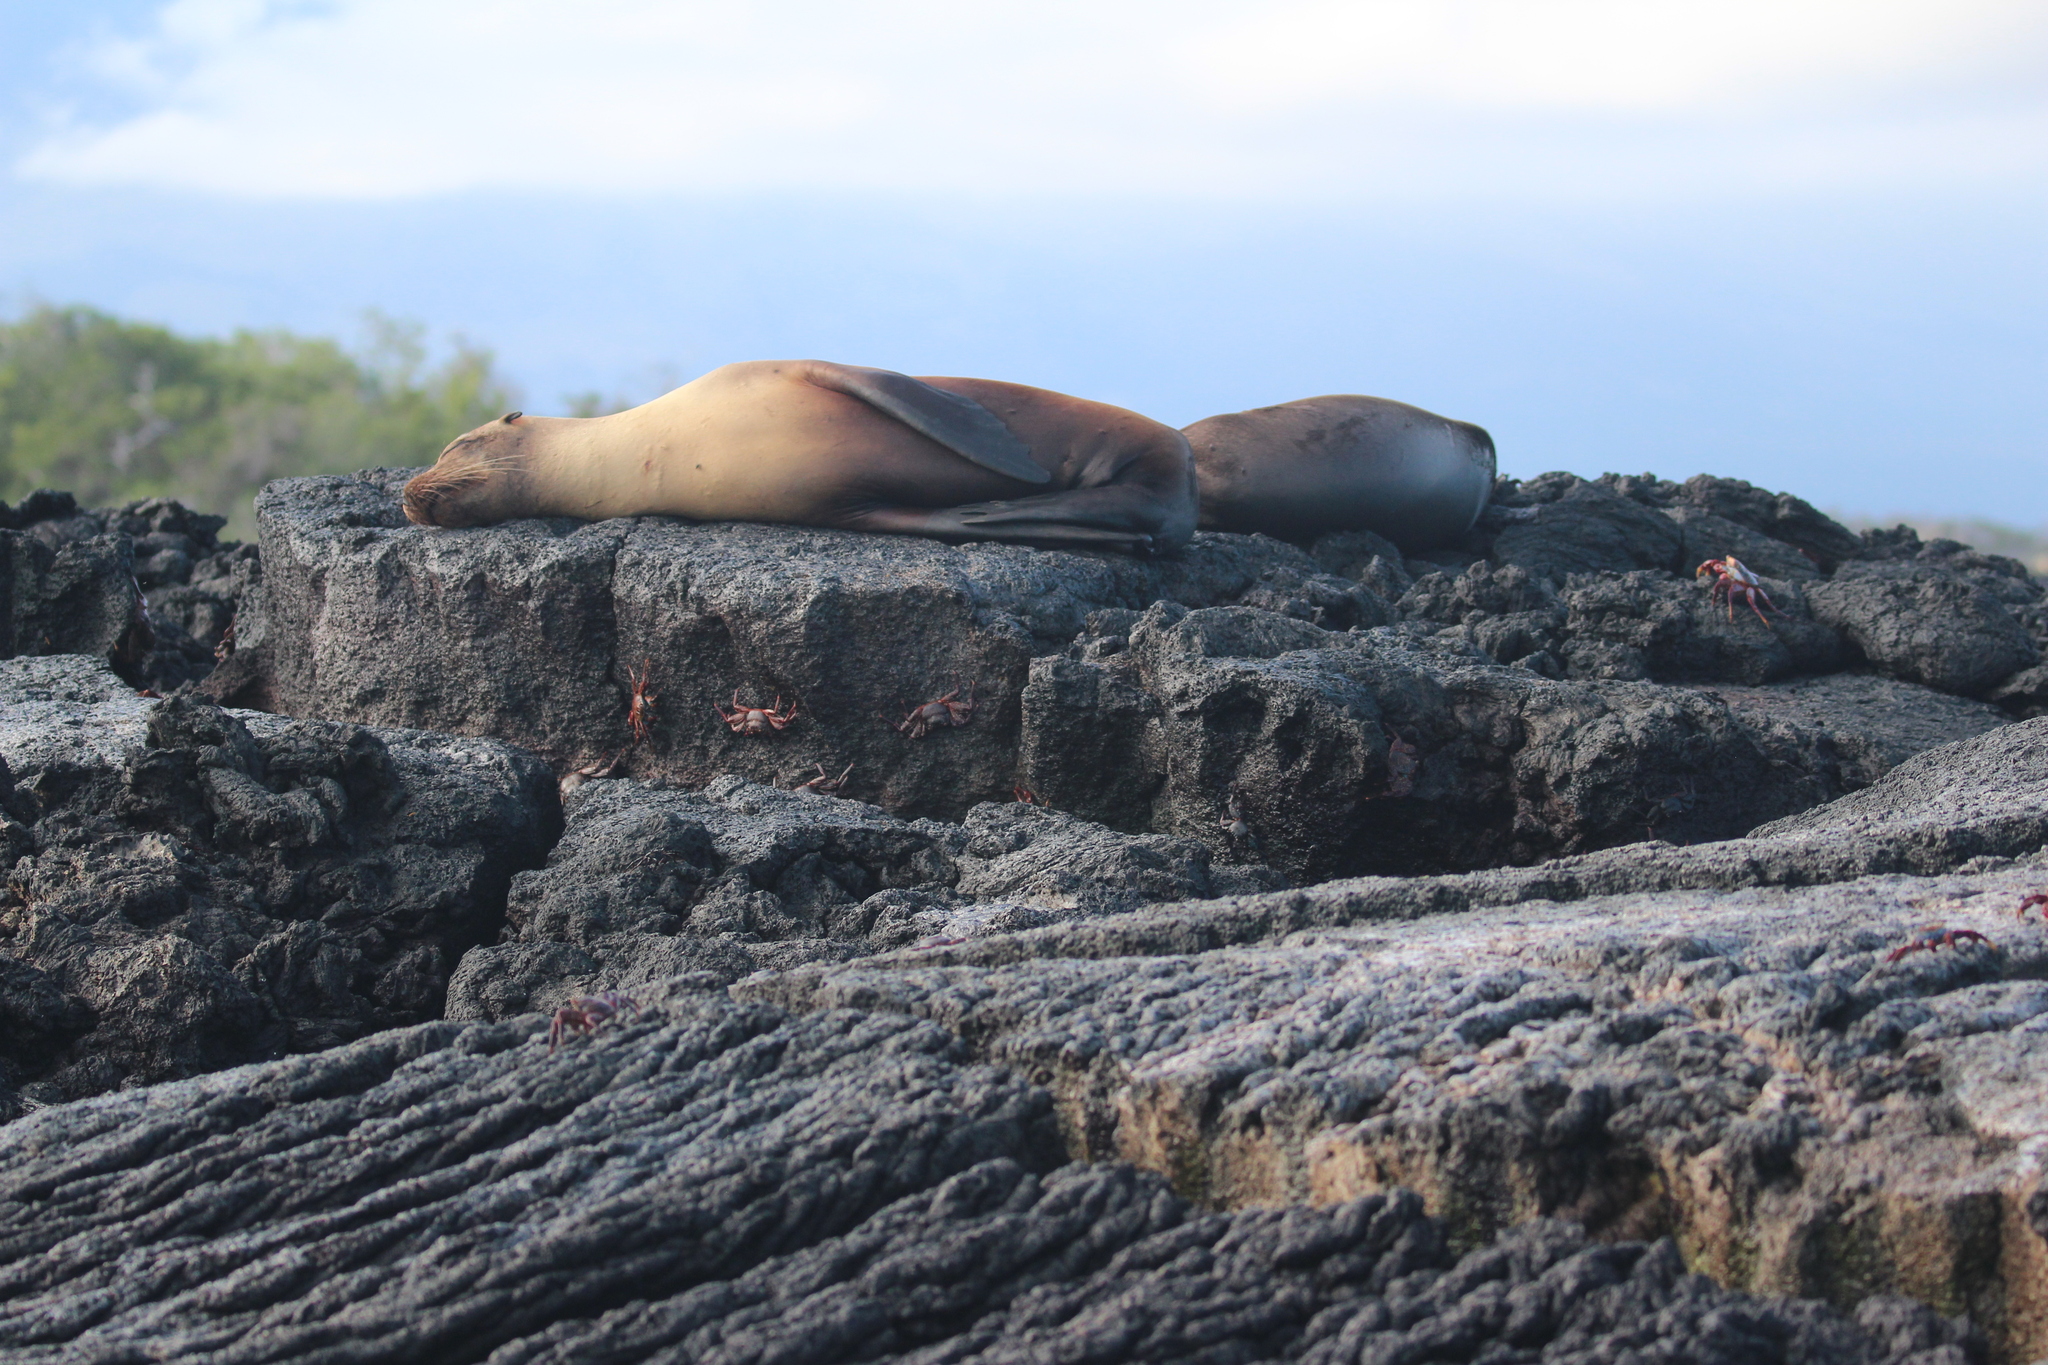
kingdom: Animalia
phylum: Chordata
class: Mammalia
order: Carnivora
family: Otariidae
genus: Zalophus
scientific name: Zalophus wollebaeki
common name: Galapagos sea lion
